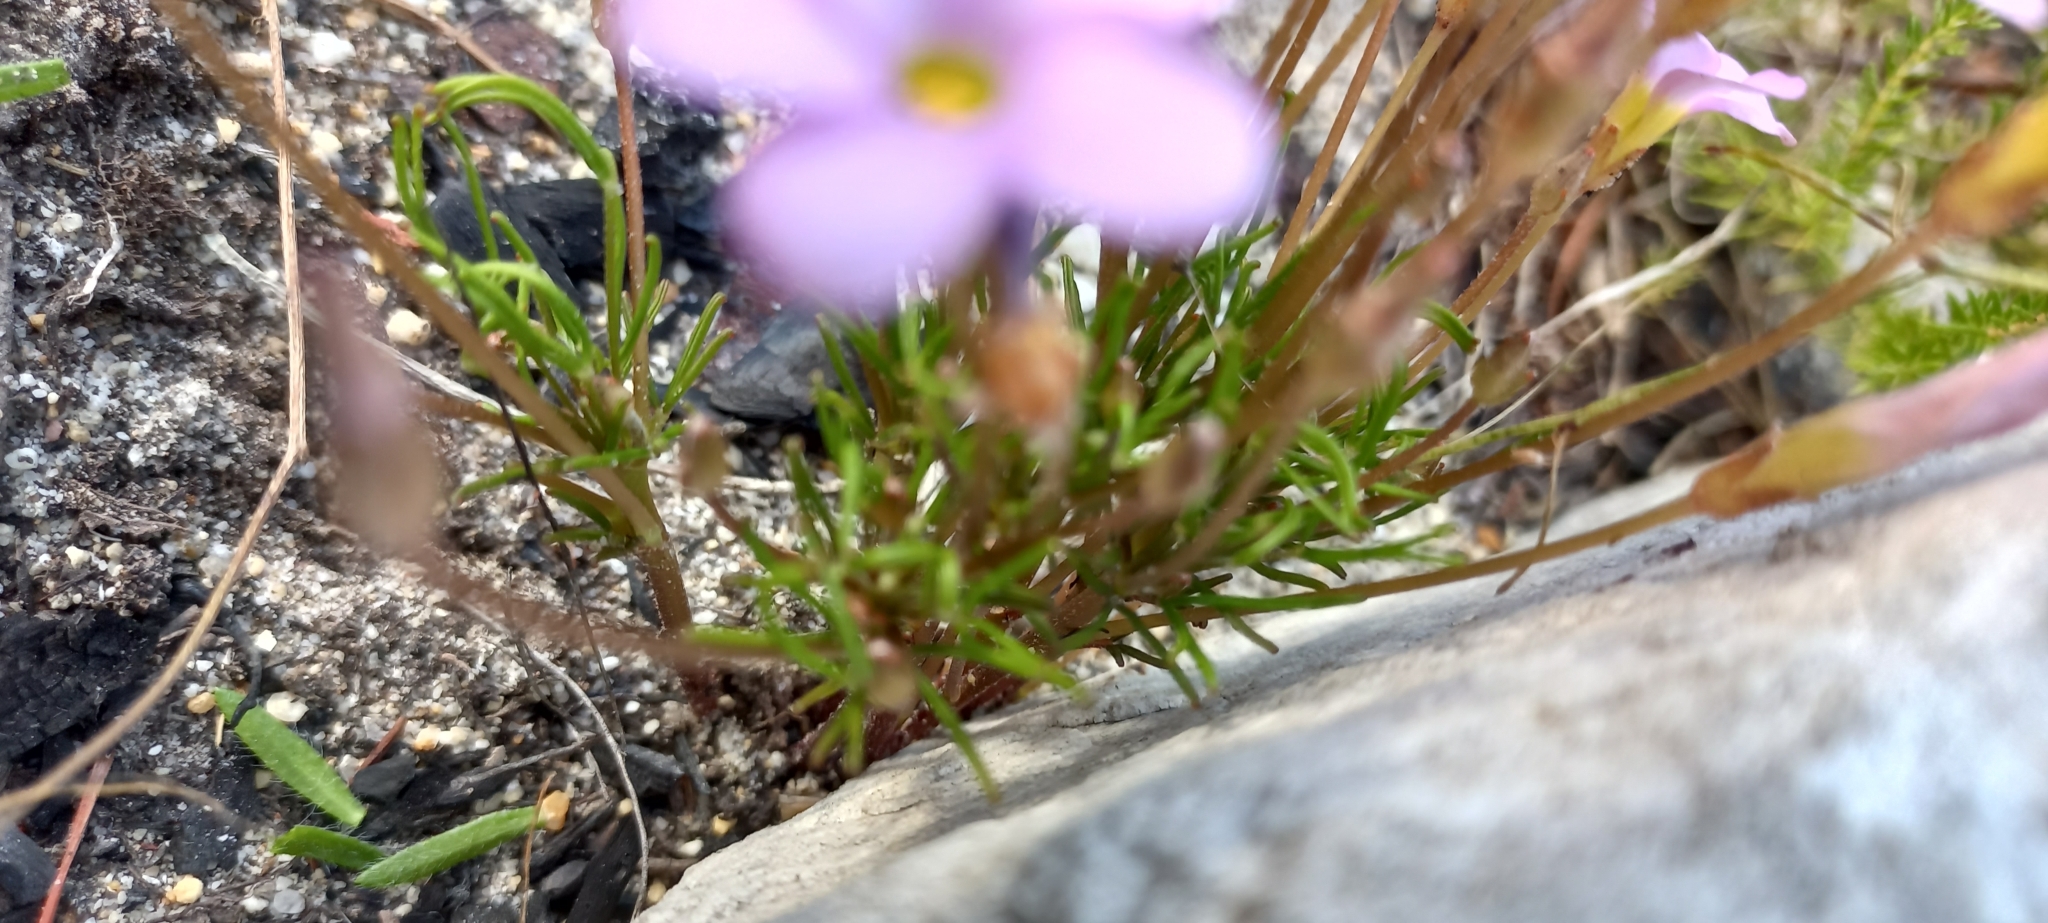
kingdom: Plantae
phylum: Tracheophyta
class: Magnoliopsida
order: Oxalidales
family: Oxalidaceae
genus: Oxalis
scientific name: Oxalis polyphylla
